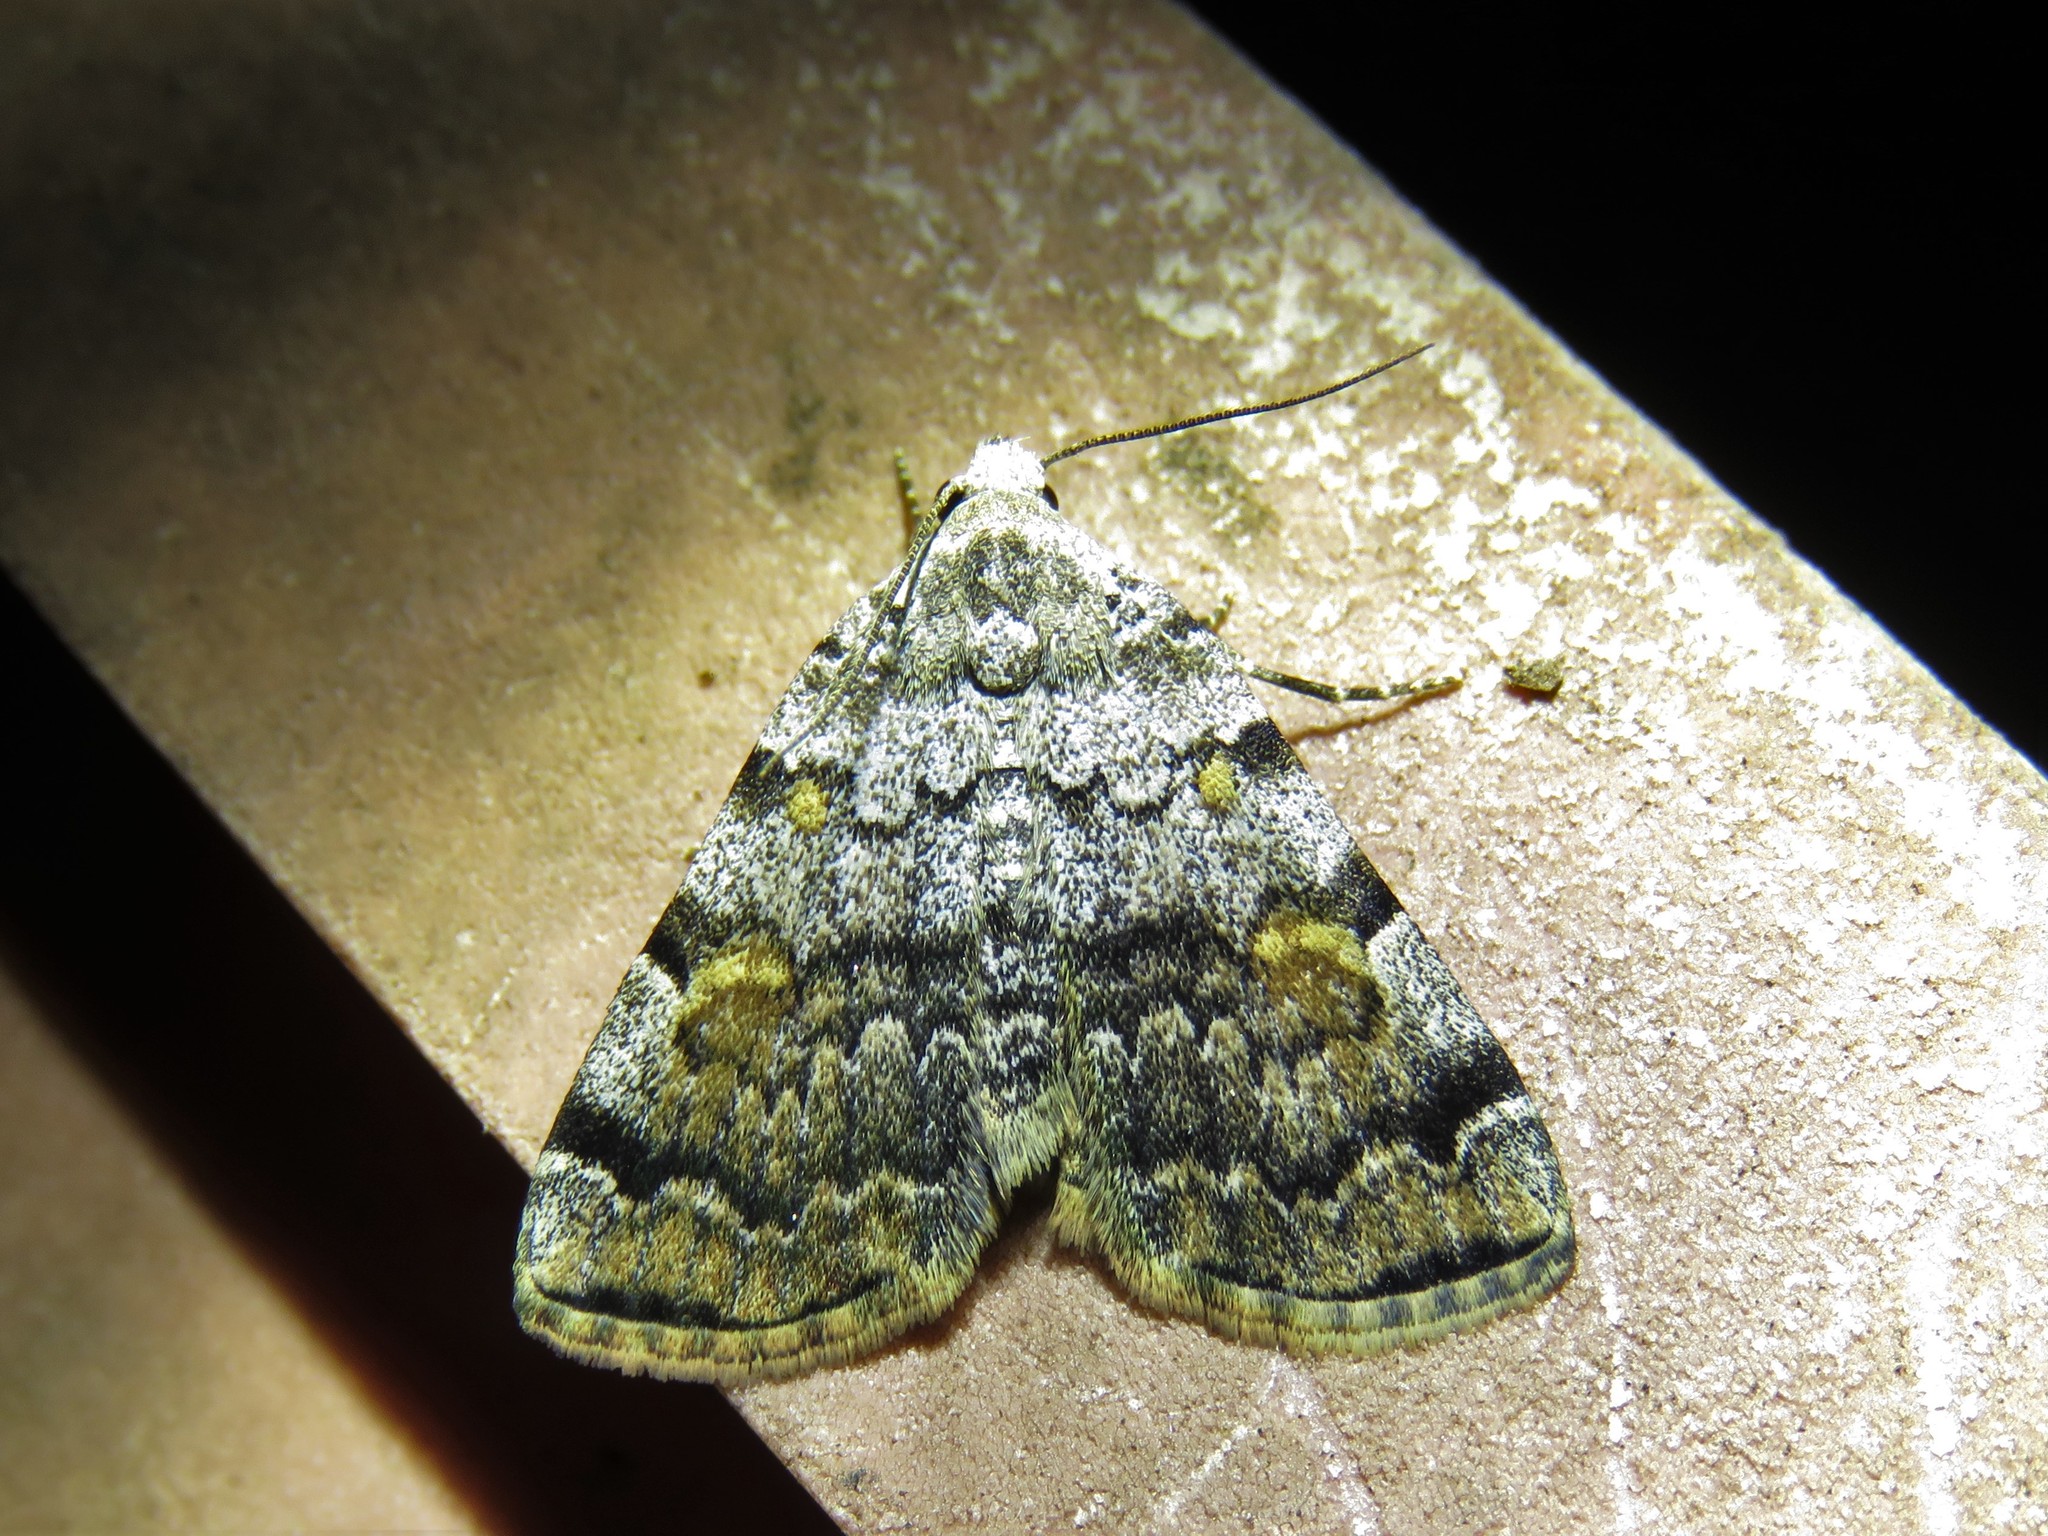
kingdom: Animalia
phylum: Arthropoda
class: Insecta
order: Lepidoptera
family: Erebidae
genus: Idia
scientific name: Idia americalis
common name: American idia moth
